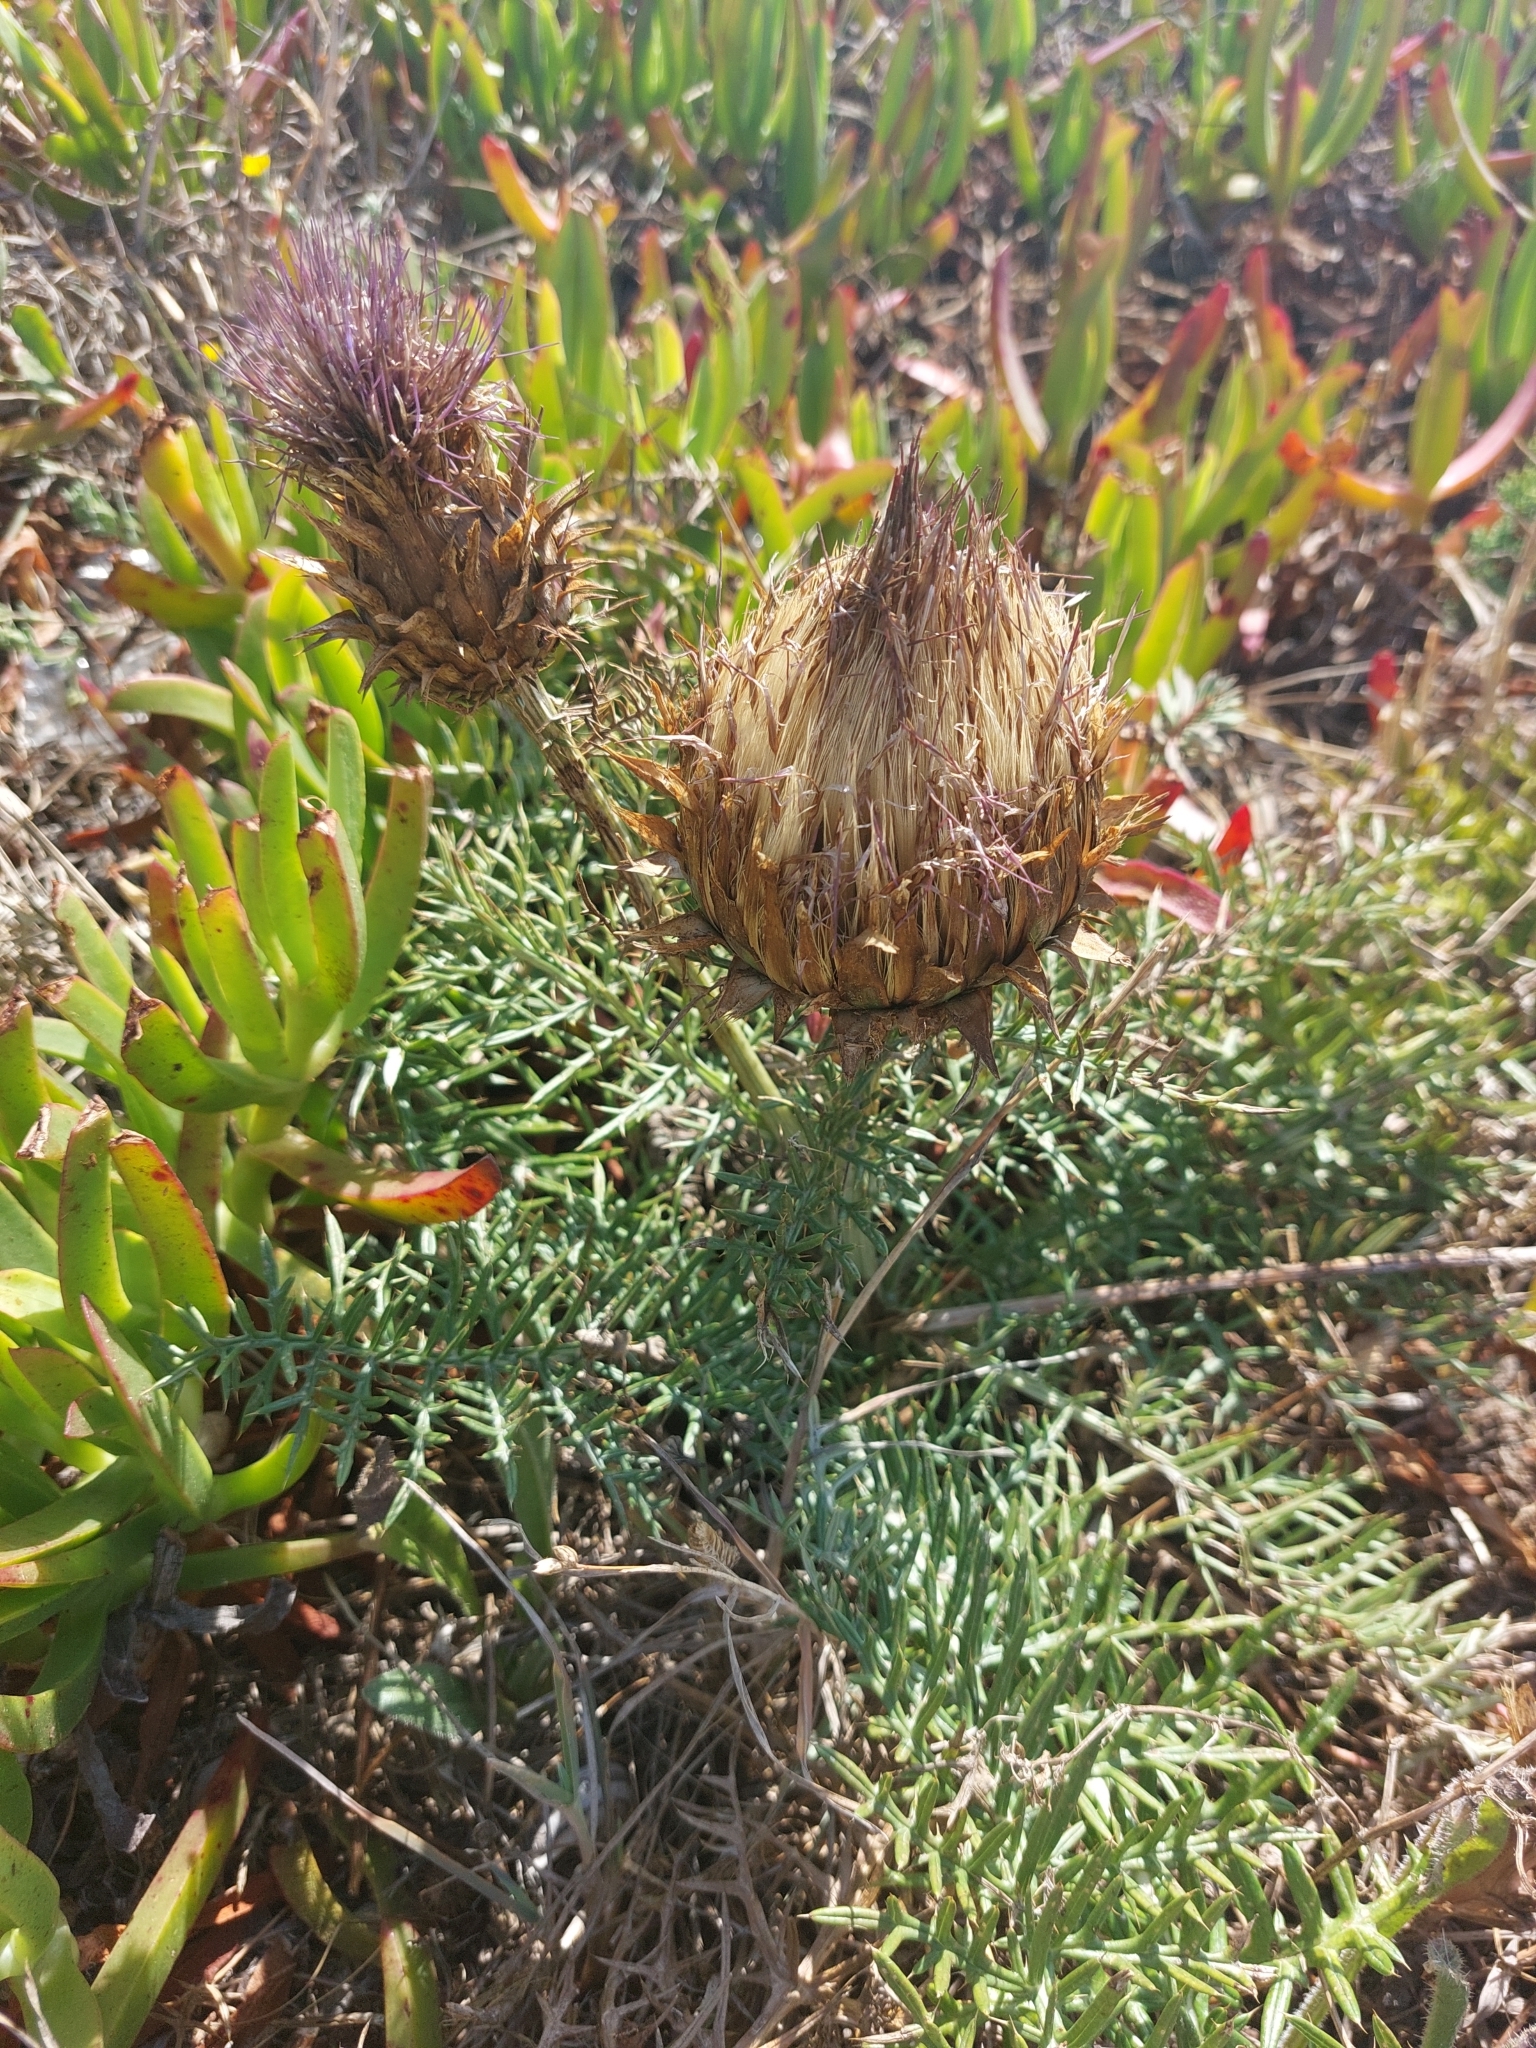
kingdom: Plantae
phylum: Tracheophyta
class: Magnoliopsida
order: Asterales
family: Asteraceae
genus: Cynara
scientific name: Cynara humilis
